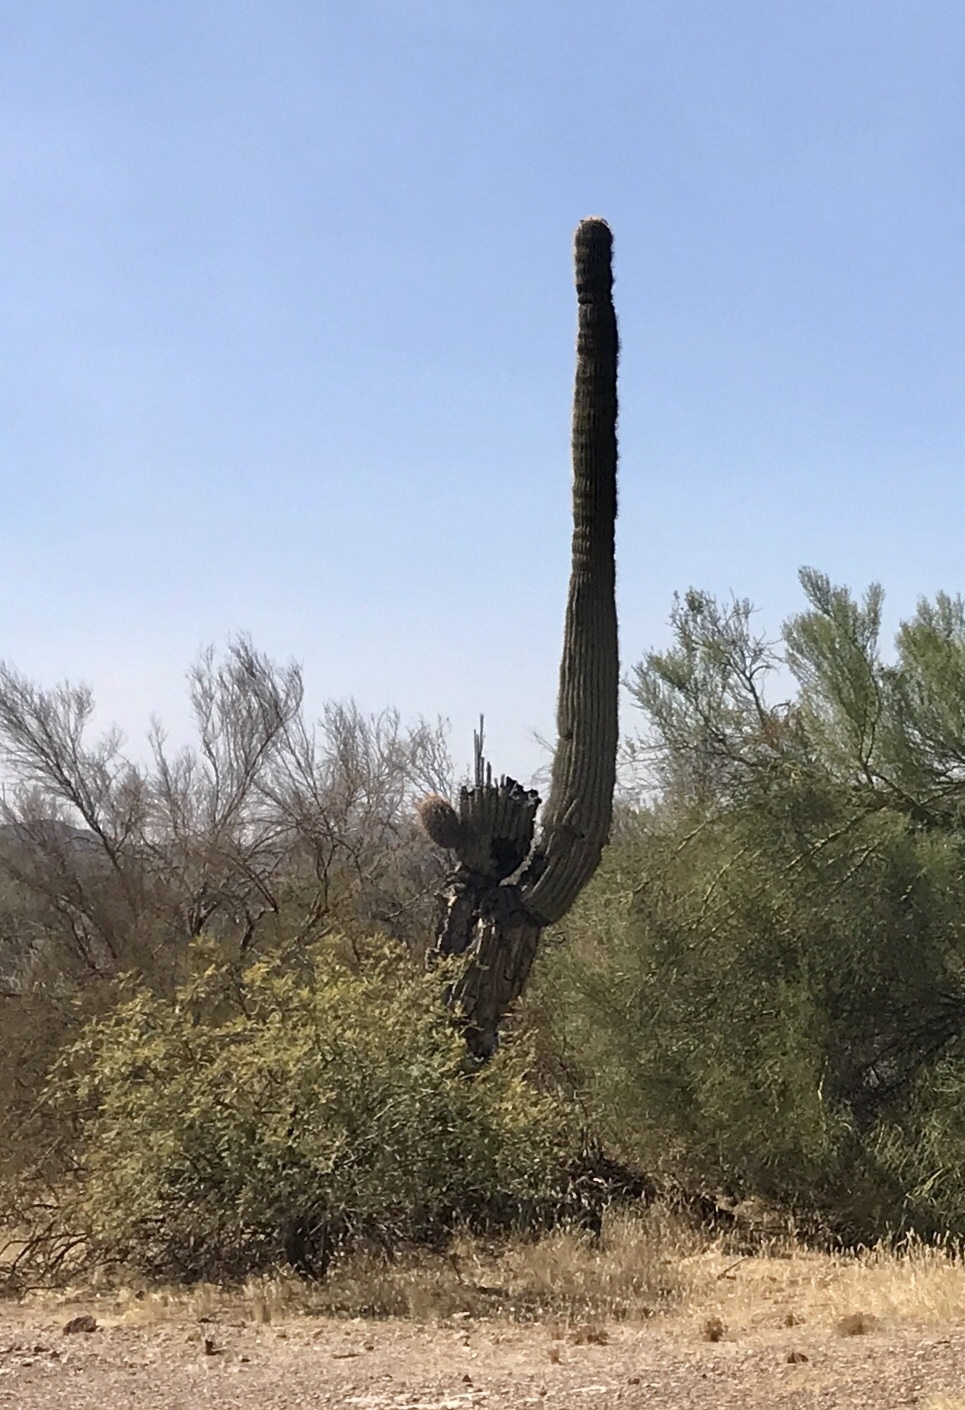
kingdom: Plantae
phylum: Tracheophyta
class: Magnoliopsida
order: Caryophyllales
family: Cactaceae
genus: Carnegiea
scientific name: Carnegiea gigantea
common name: Saguaro
